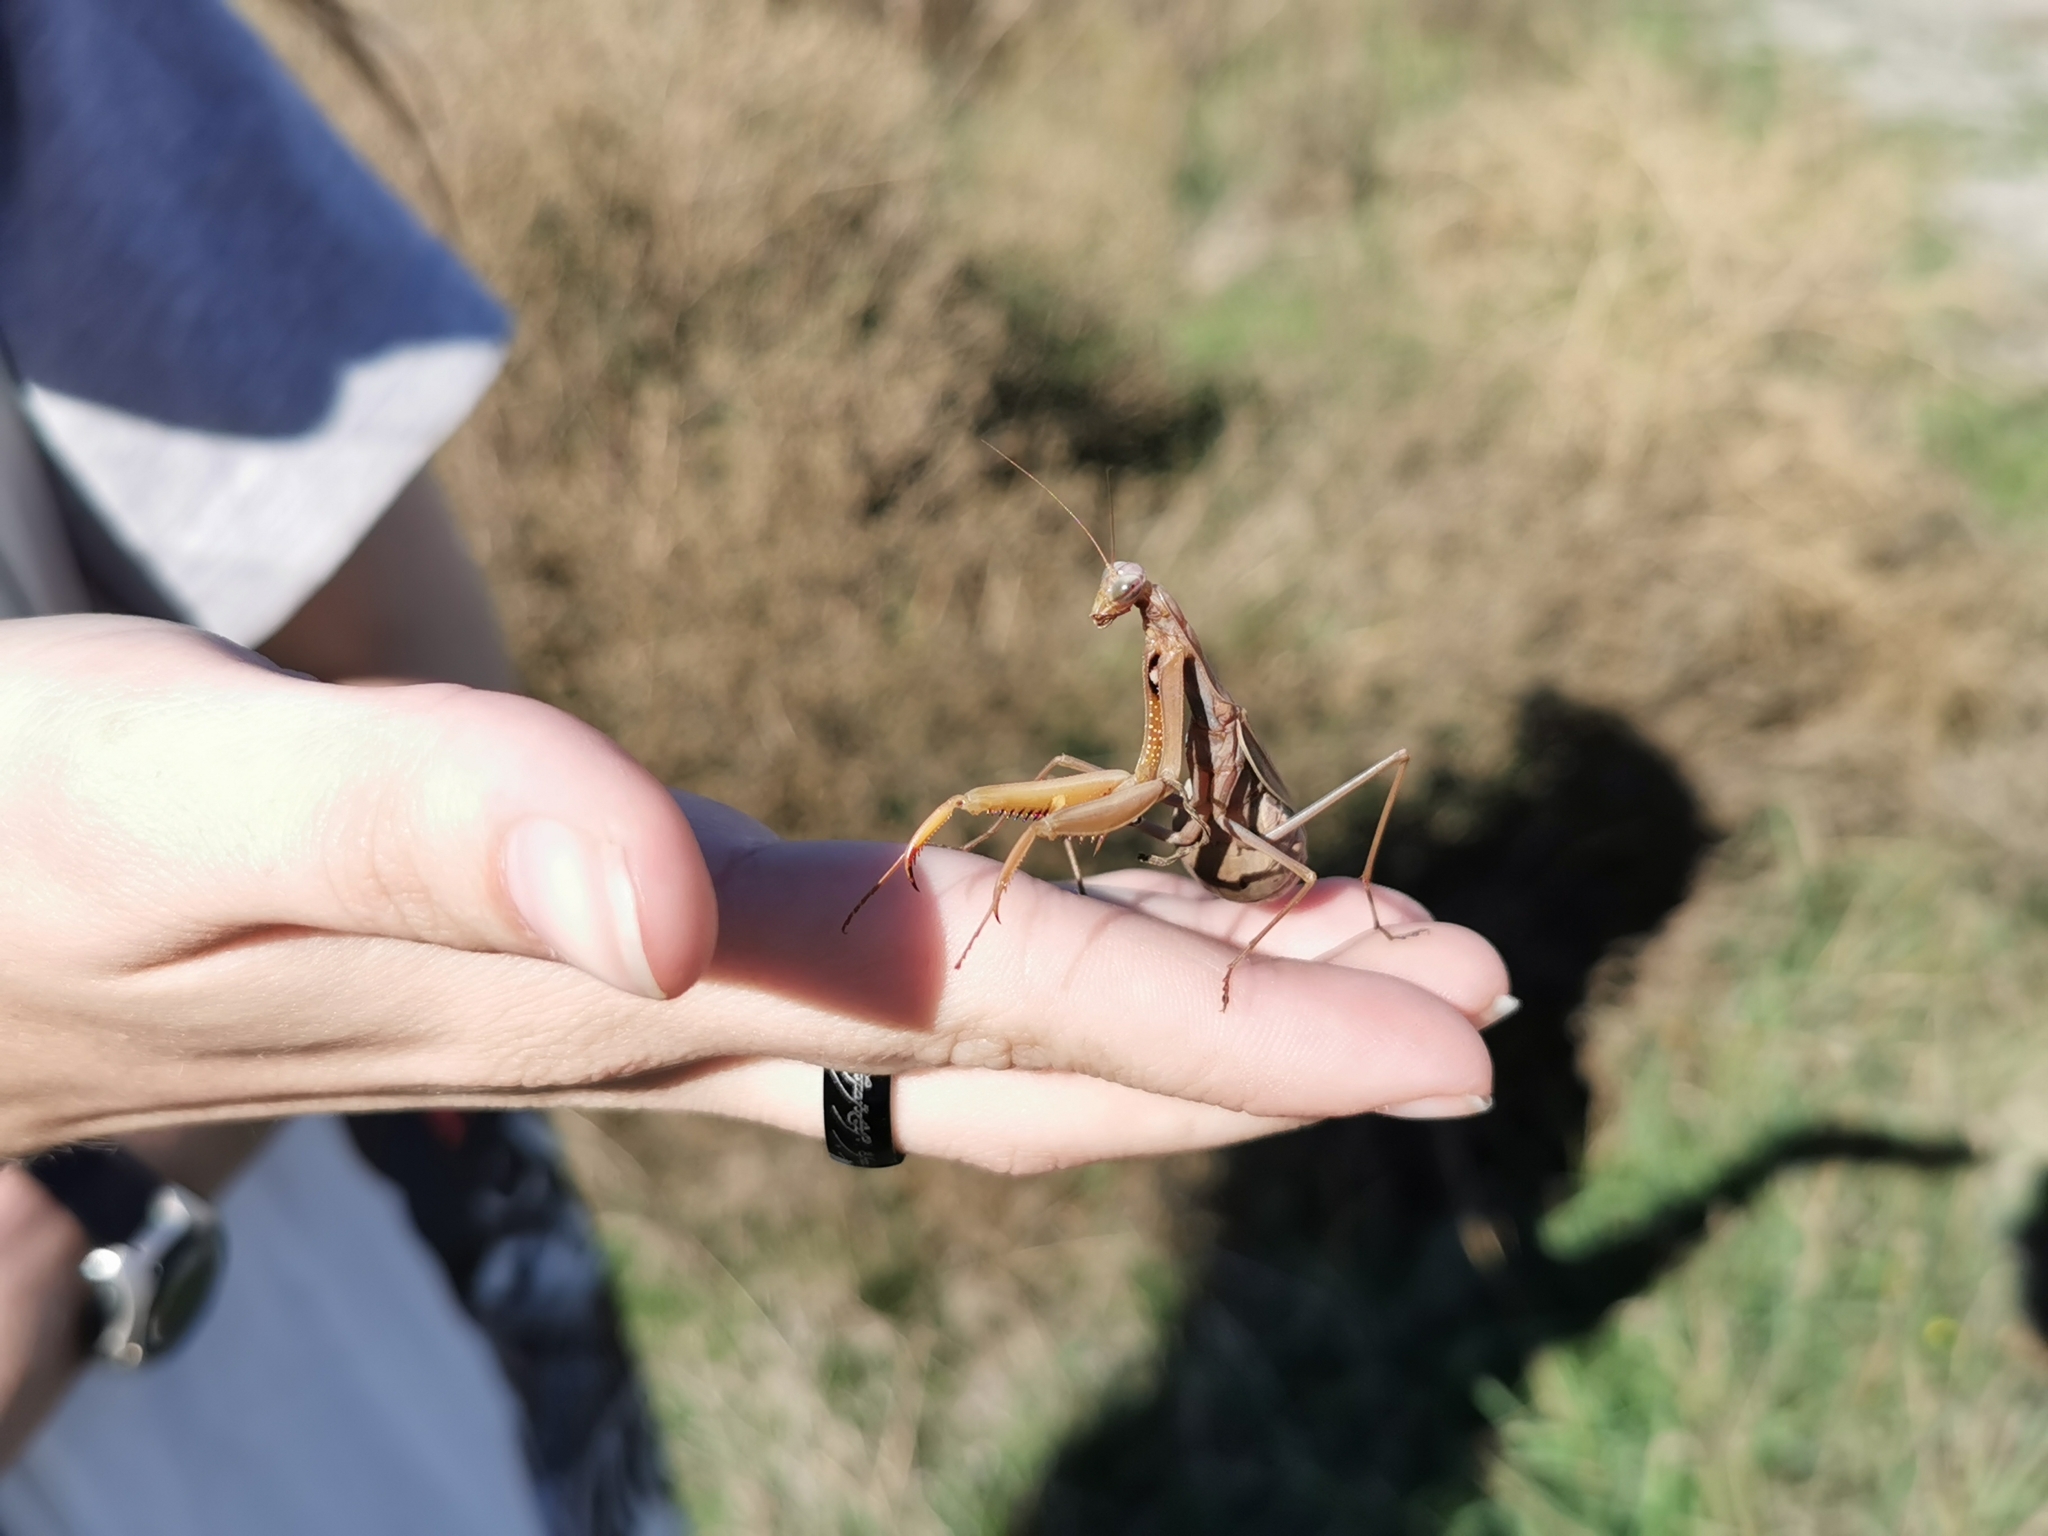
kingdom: Animalia
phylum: Arthropoda
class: Insecta
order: Mantodea
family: Mantidae
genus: Mantis
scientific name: Mantis religiosa
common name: Praying mantis
